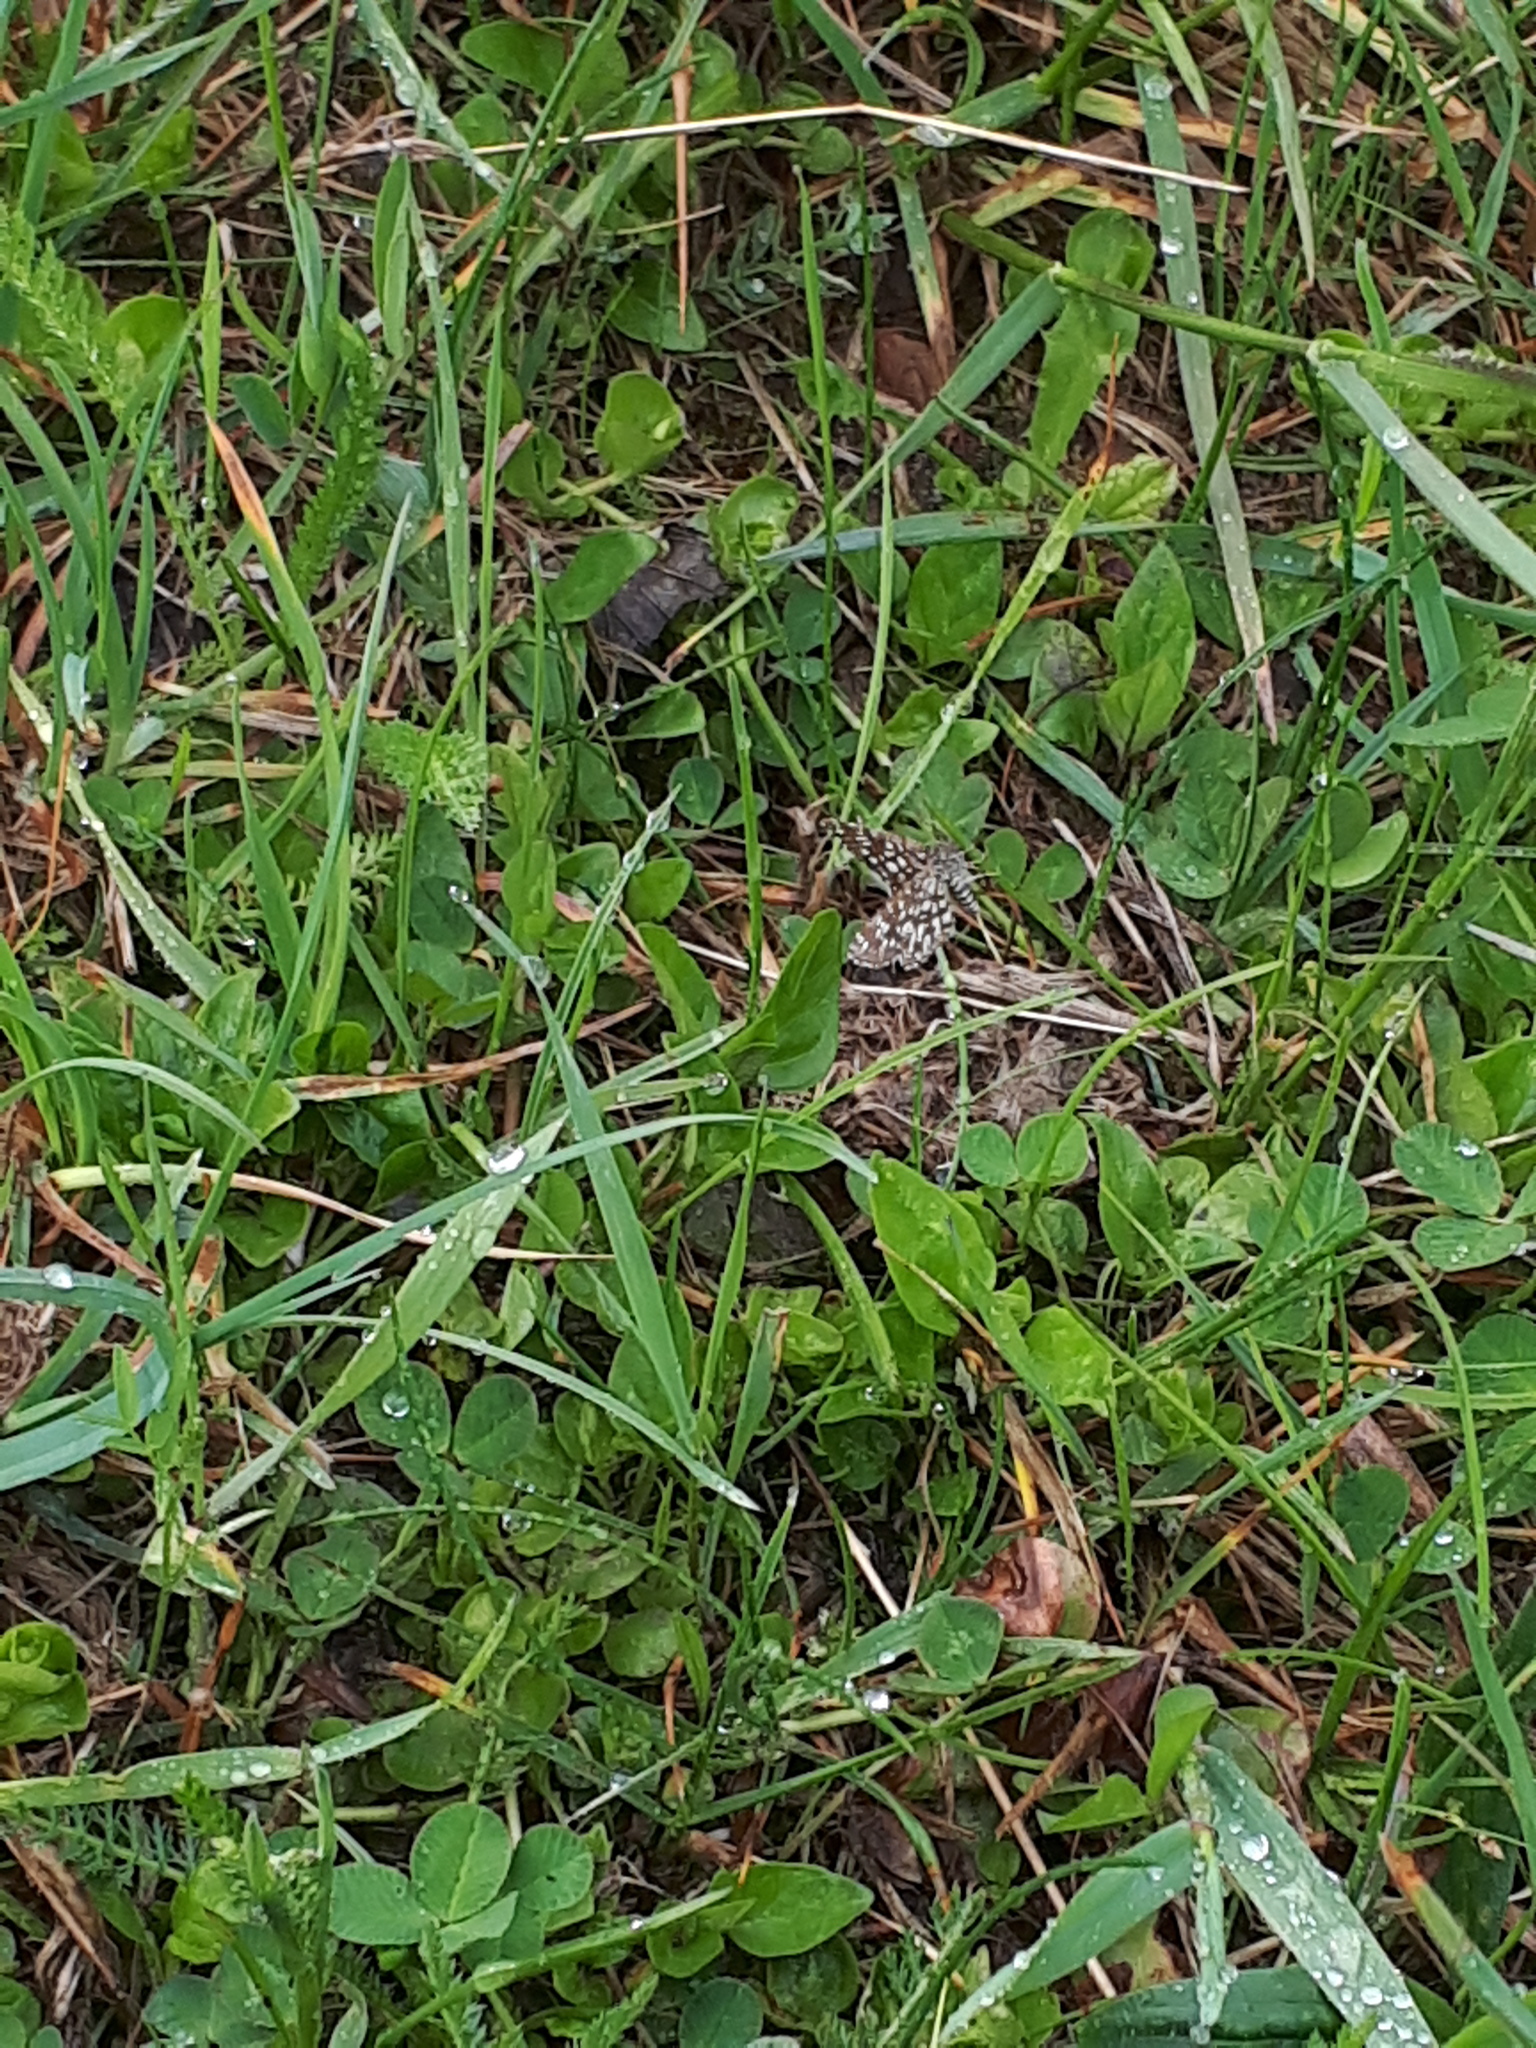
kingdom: Animalia
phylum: Arthropoda
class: Insecta
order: Lepidoptera
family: Geometridae
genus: Chiasmia
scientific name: Chiasmia clathrata
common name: Latticed heath
